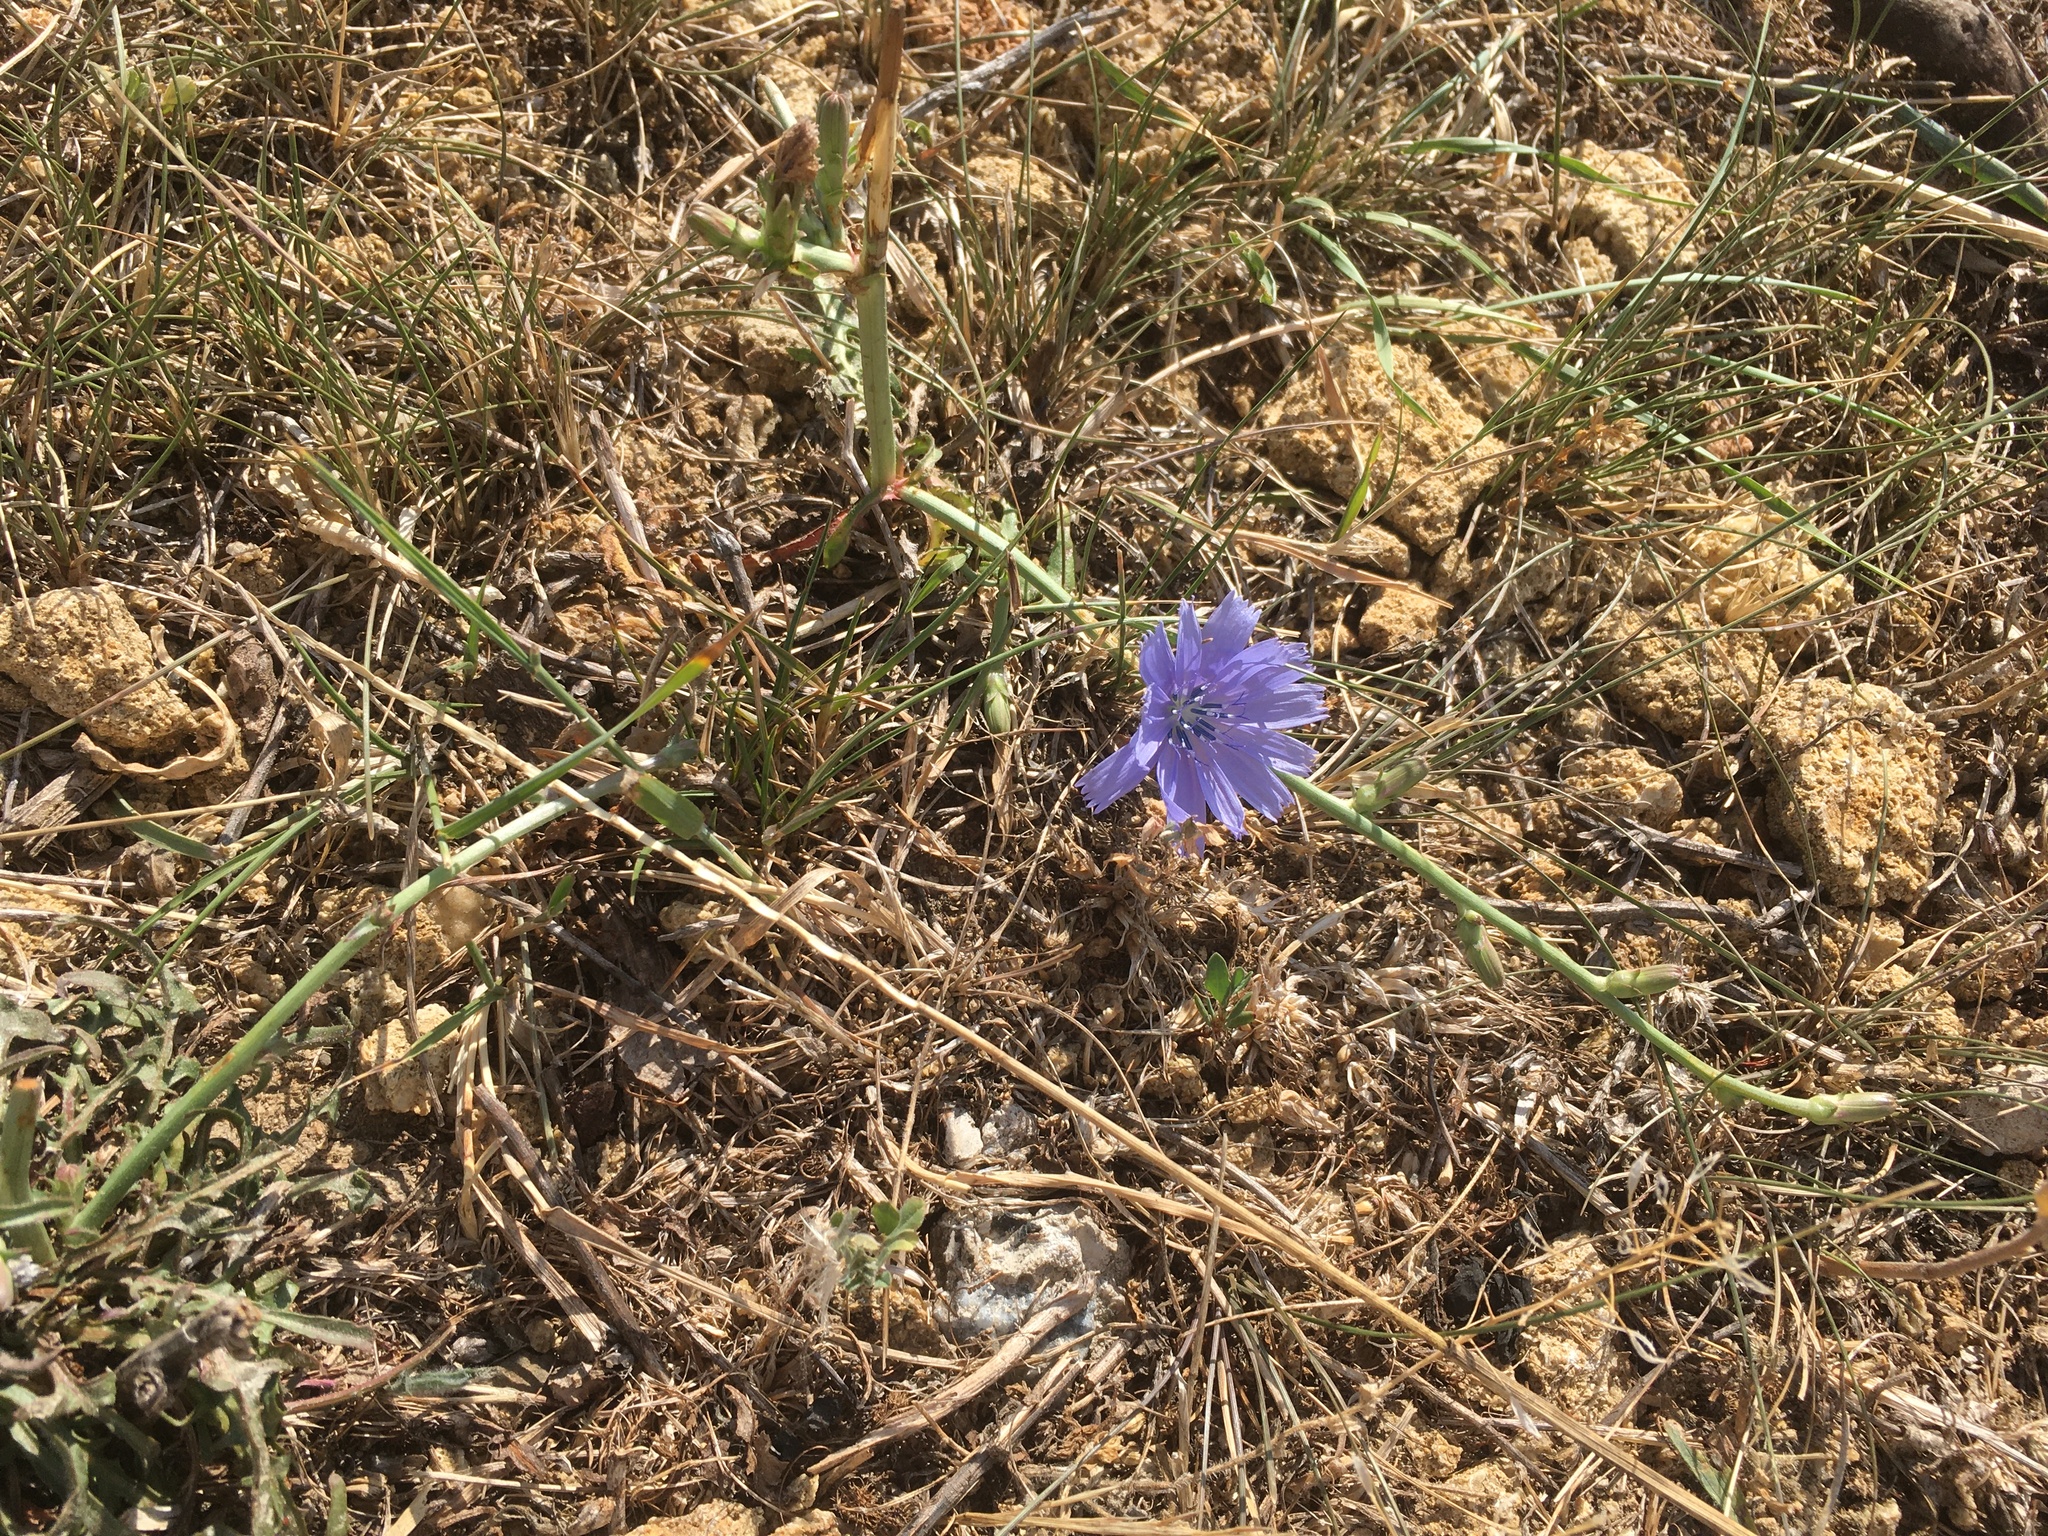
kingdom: Plantae
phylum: Tracheophyta
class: Magnoliopsida
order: Asterales
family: Asteraceae
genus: Cichorium
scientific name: Cichorium intybus
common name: Chicory
